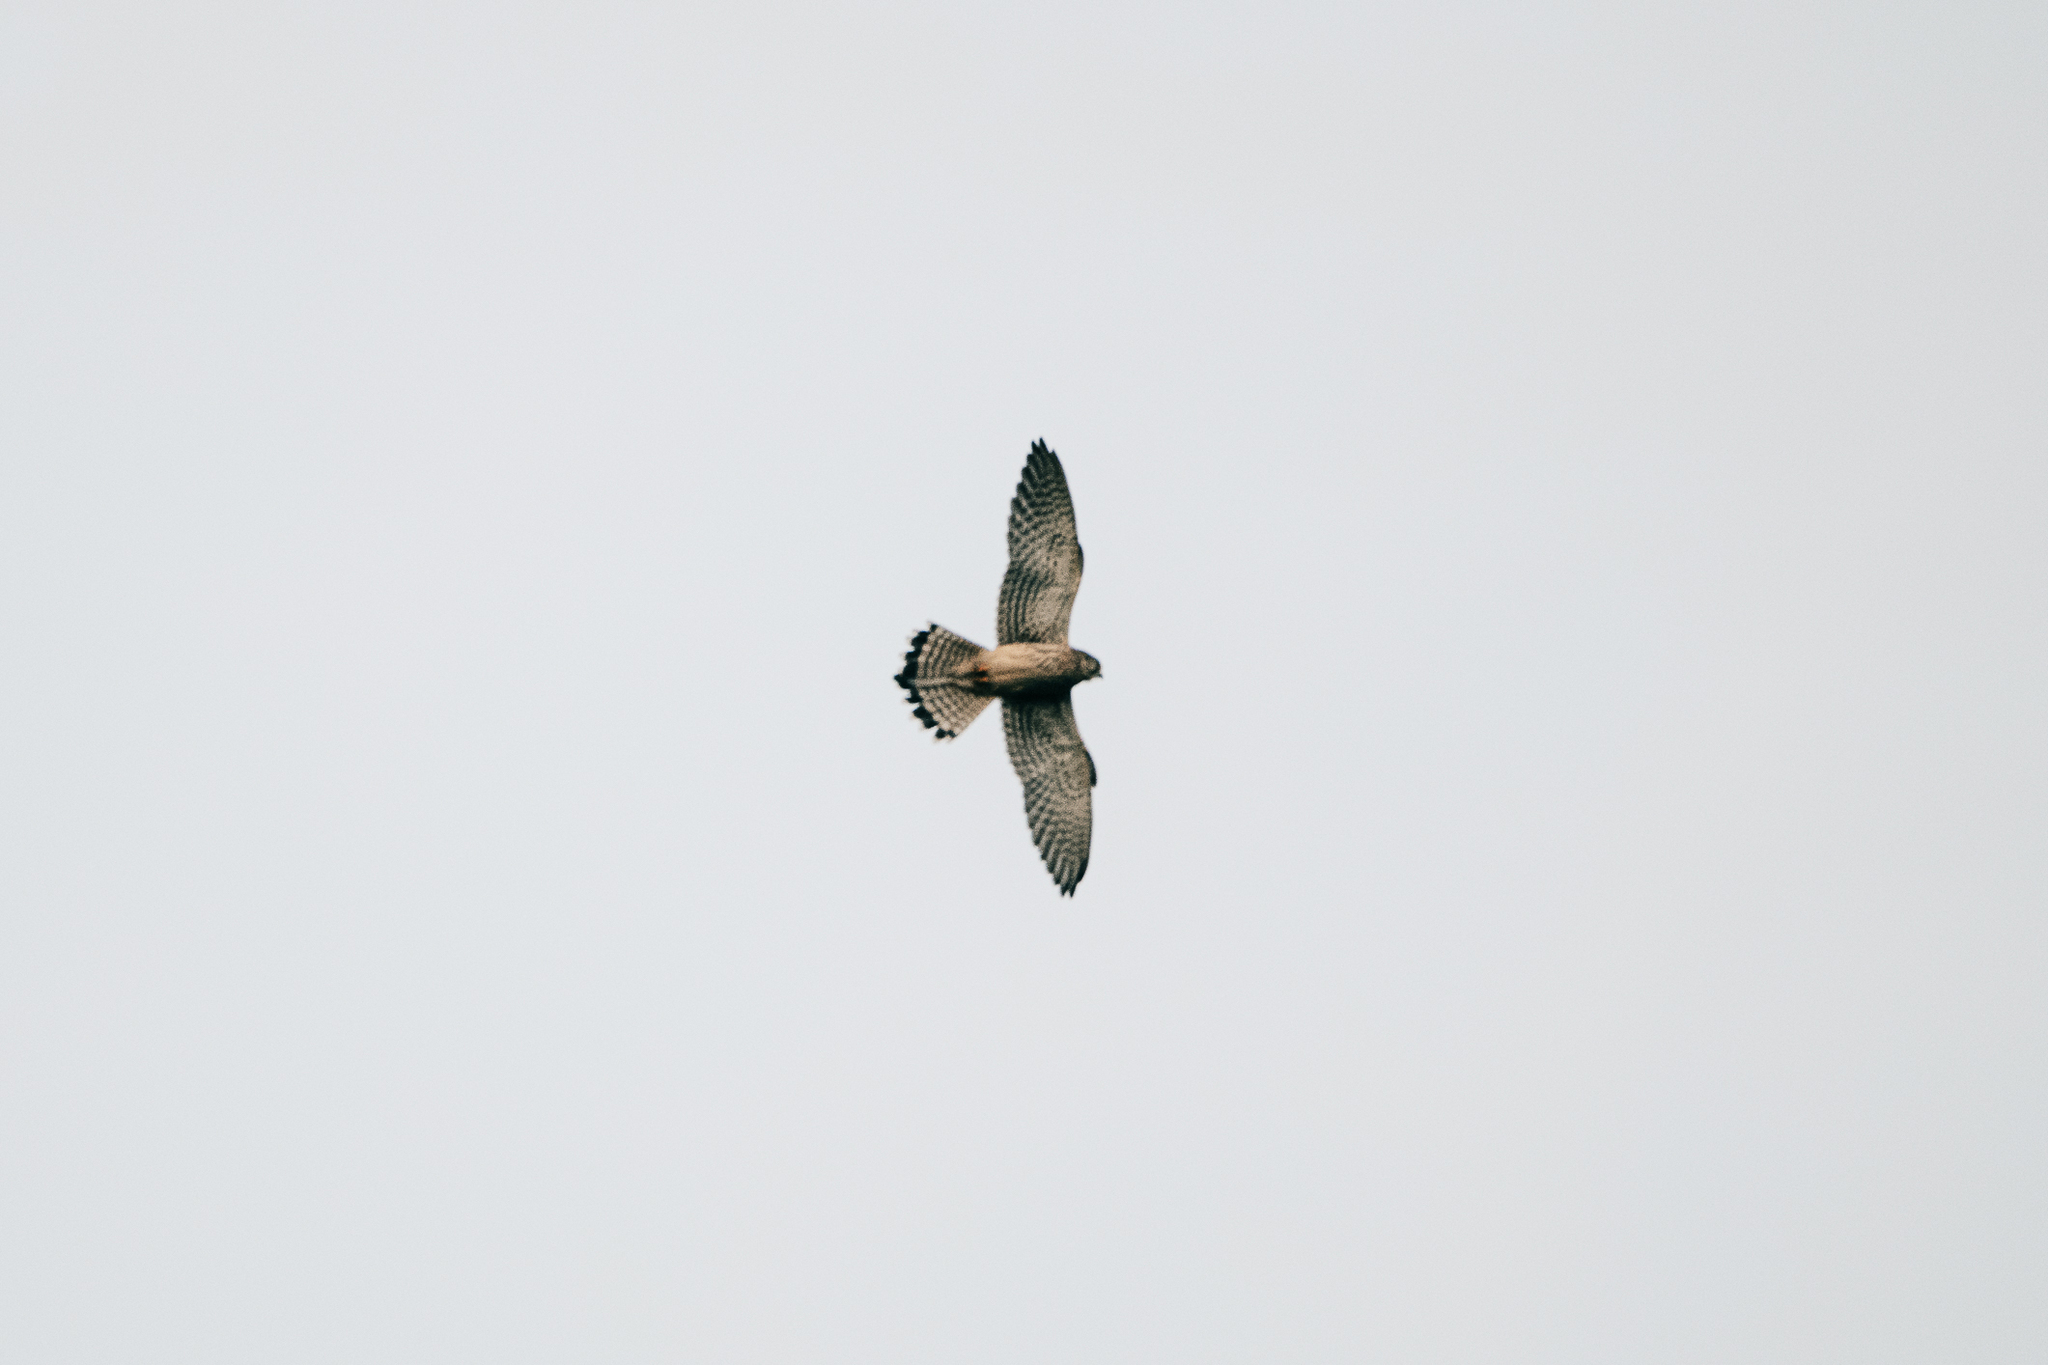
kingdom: Animalia
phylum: Chordata
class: Aves
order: Falconiformes
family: Falconidae
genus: Falco
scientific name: Falco tinnunculus
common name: Common kestrel
